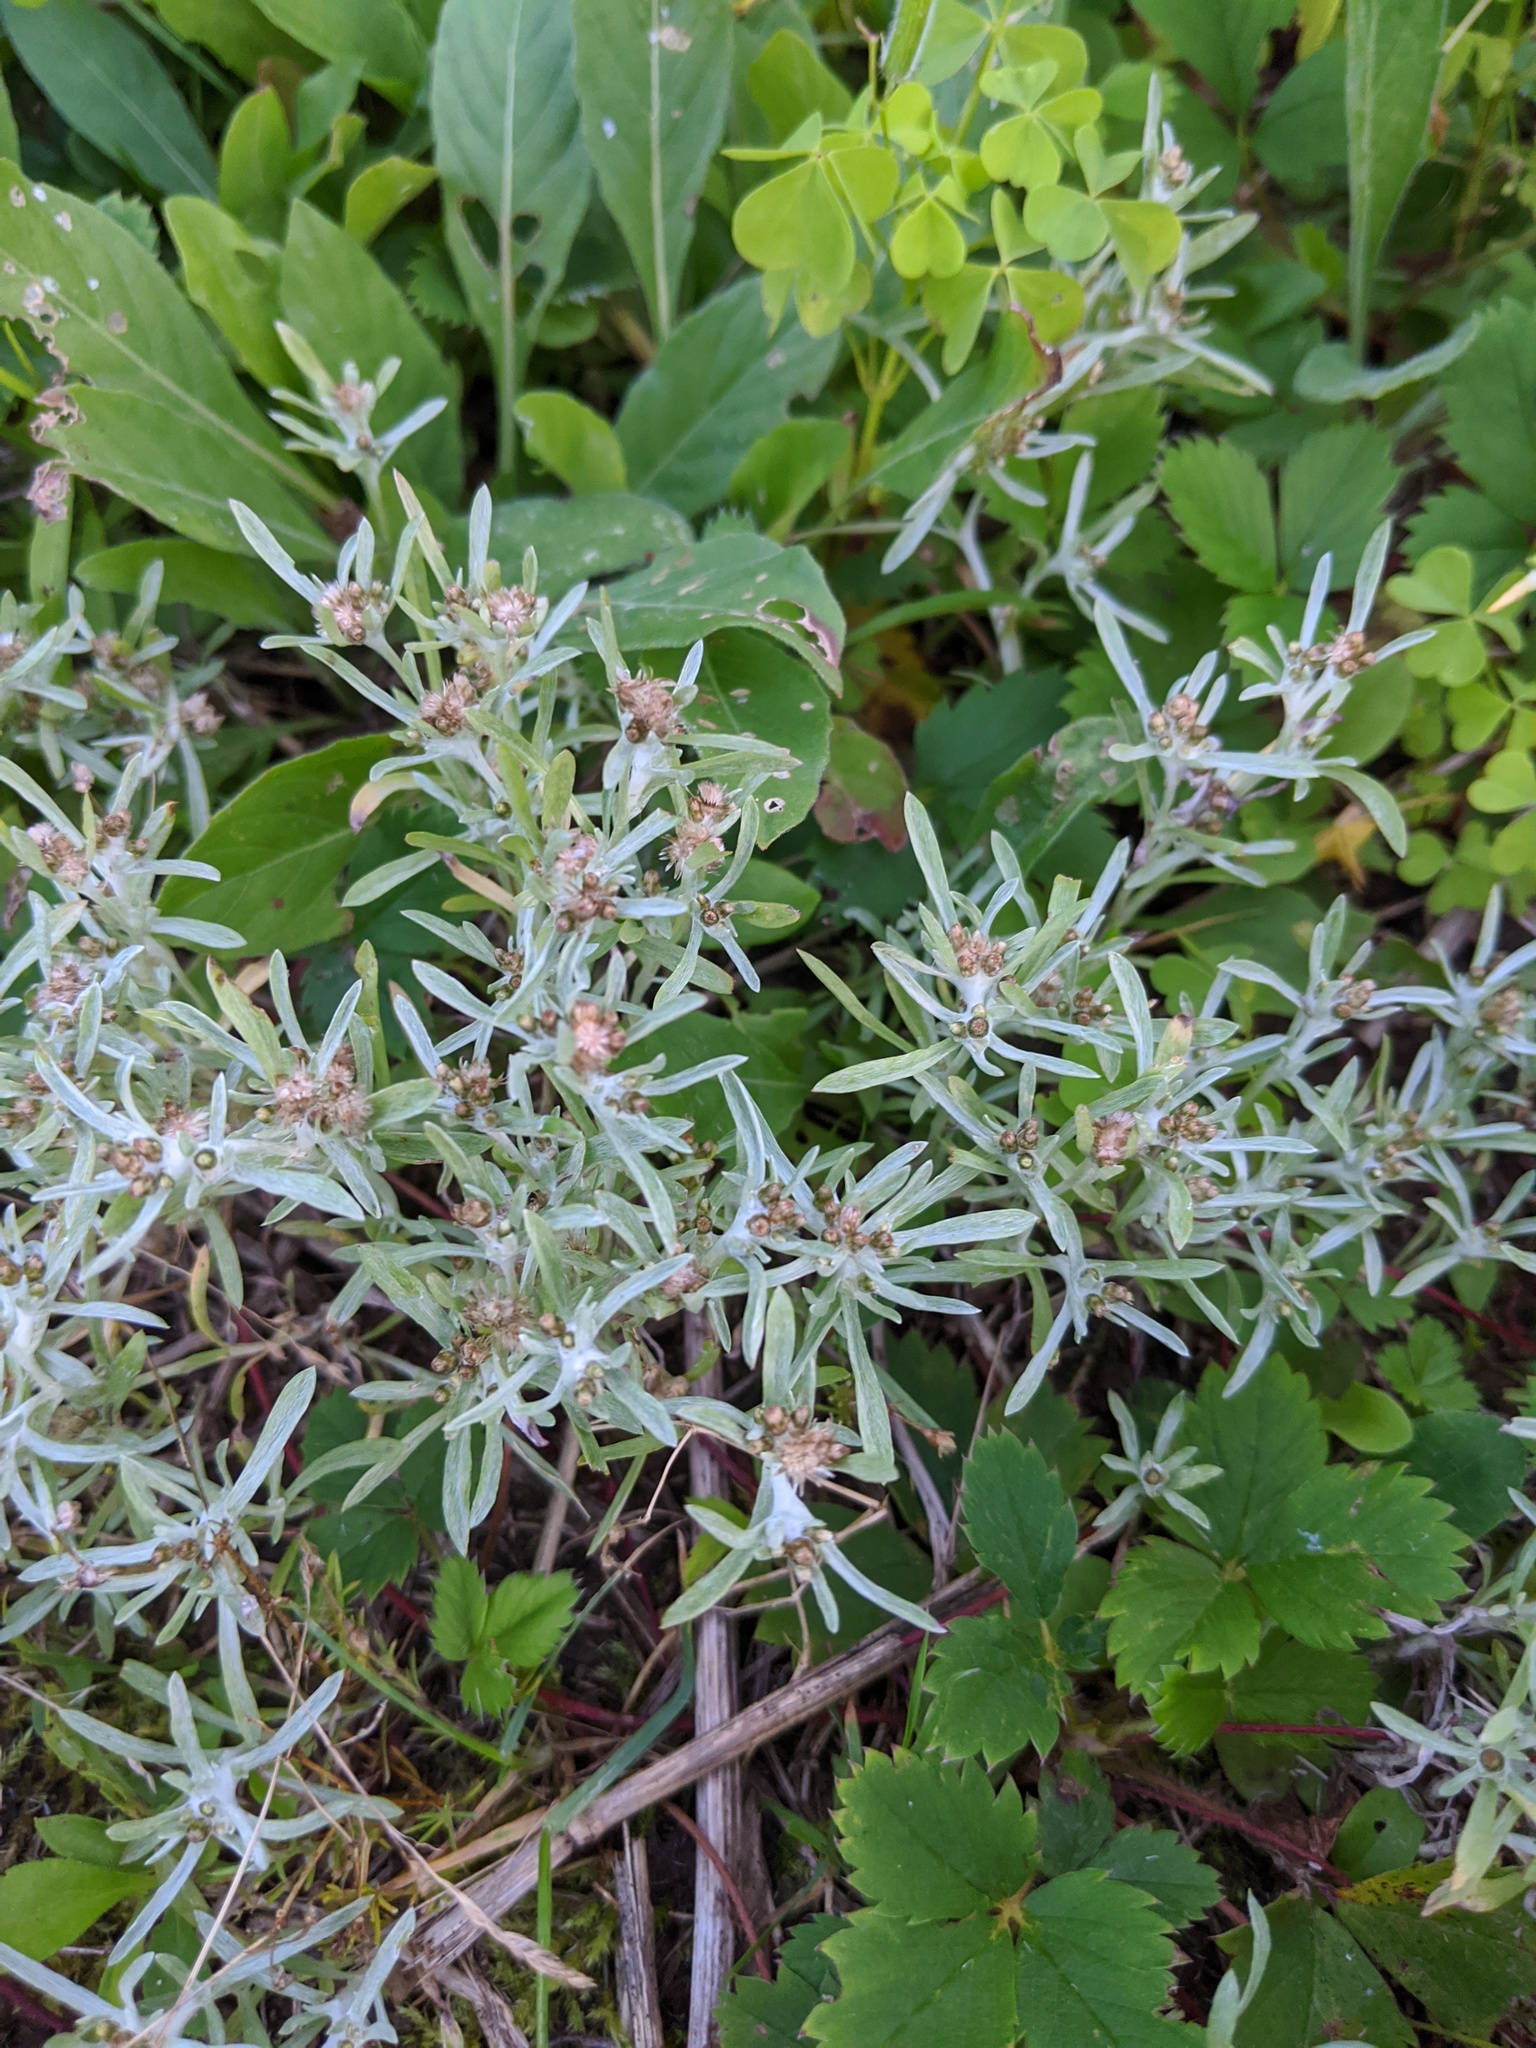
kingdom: Plantae
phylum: Tracheophyta
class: Magnoliopsida
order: Asterales
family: Asteraceae
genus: Gnaphalium
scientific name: Gnaphalium uliginosum
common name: Marsh cudweed
